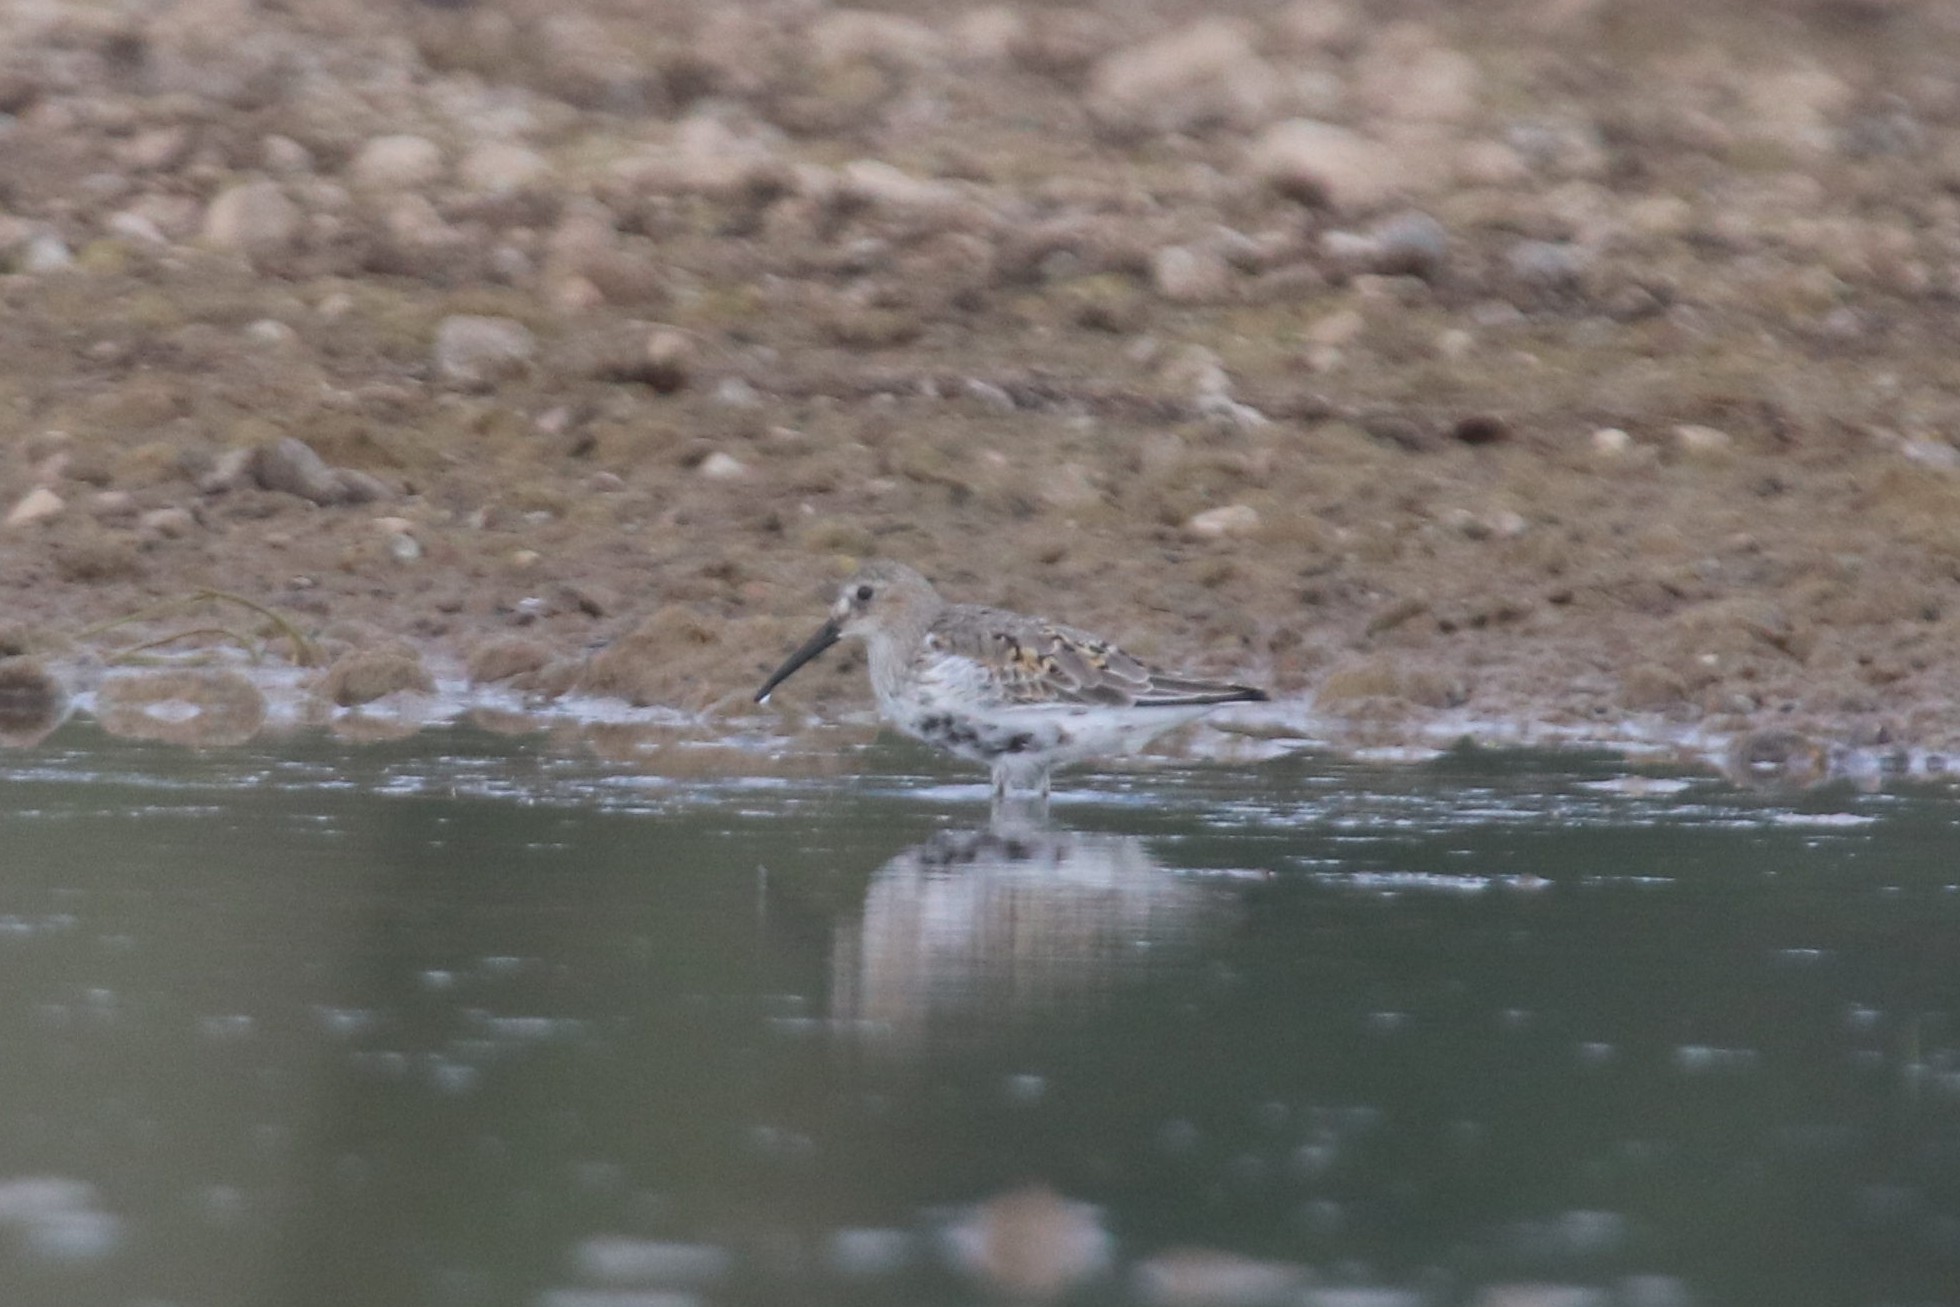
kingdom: Animalia
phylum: Chordata
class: Aves
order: Charadriiformes
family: Scolopacidae
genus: Calidris
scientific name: Calidris alpina
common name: Dunlin
